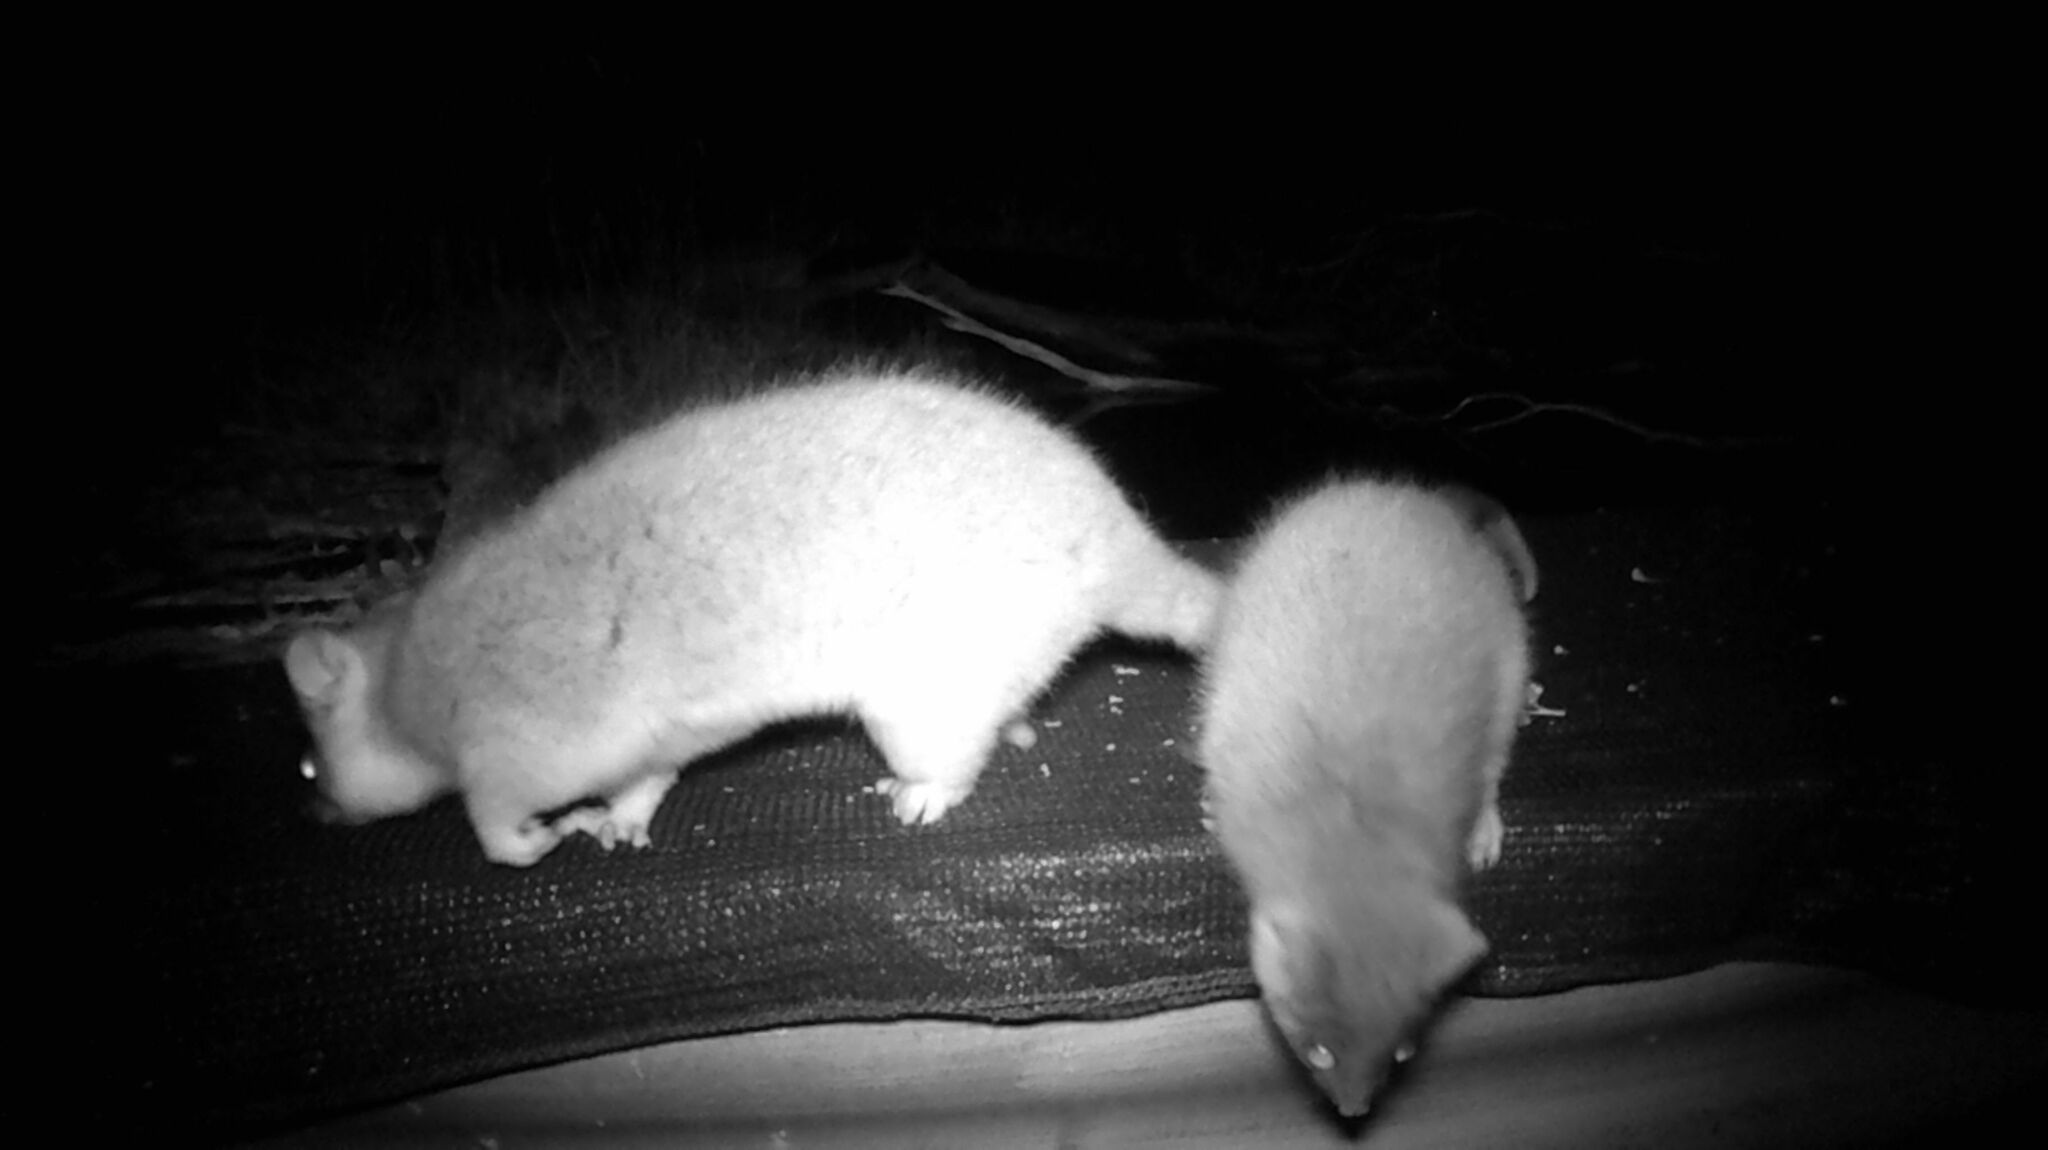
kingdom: Animalia
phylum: Chordata
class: Mammalia
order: Diprotodontia
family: Pseudocheiridae
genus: Pseudocheirus
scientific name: Pseudocheirus peregrinus
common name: Common ringtail possum
